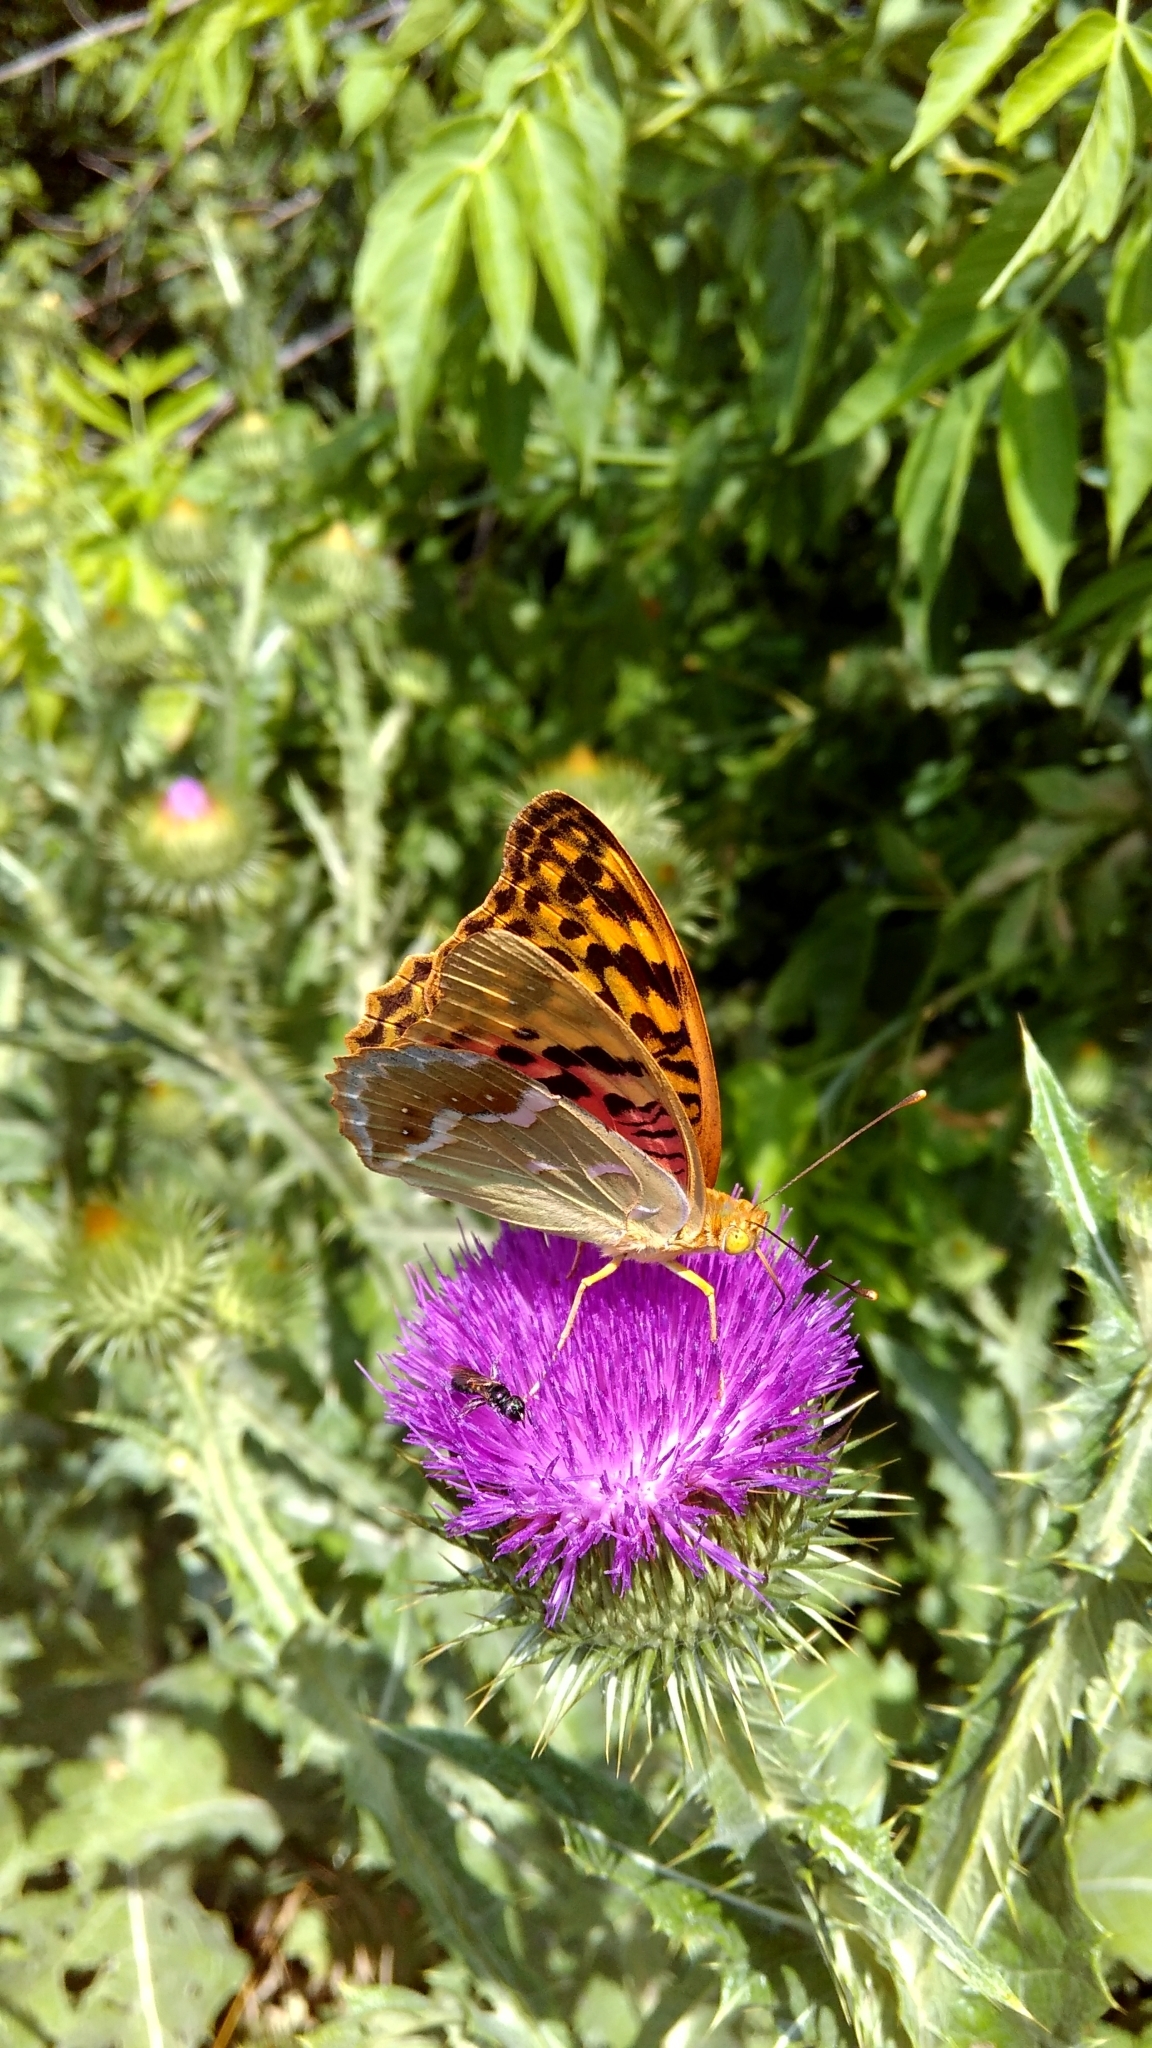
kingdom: Animalia
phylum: Arthropoda
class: Insecta
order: Lepidoptera
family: Nymphalidae
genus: Damora
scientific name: Damora pandora
